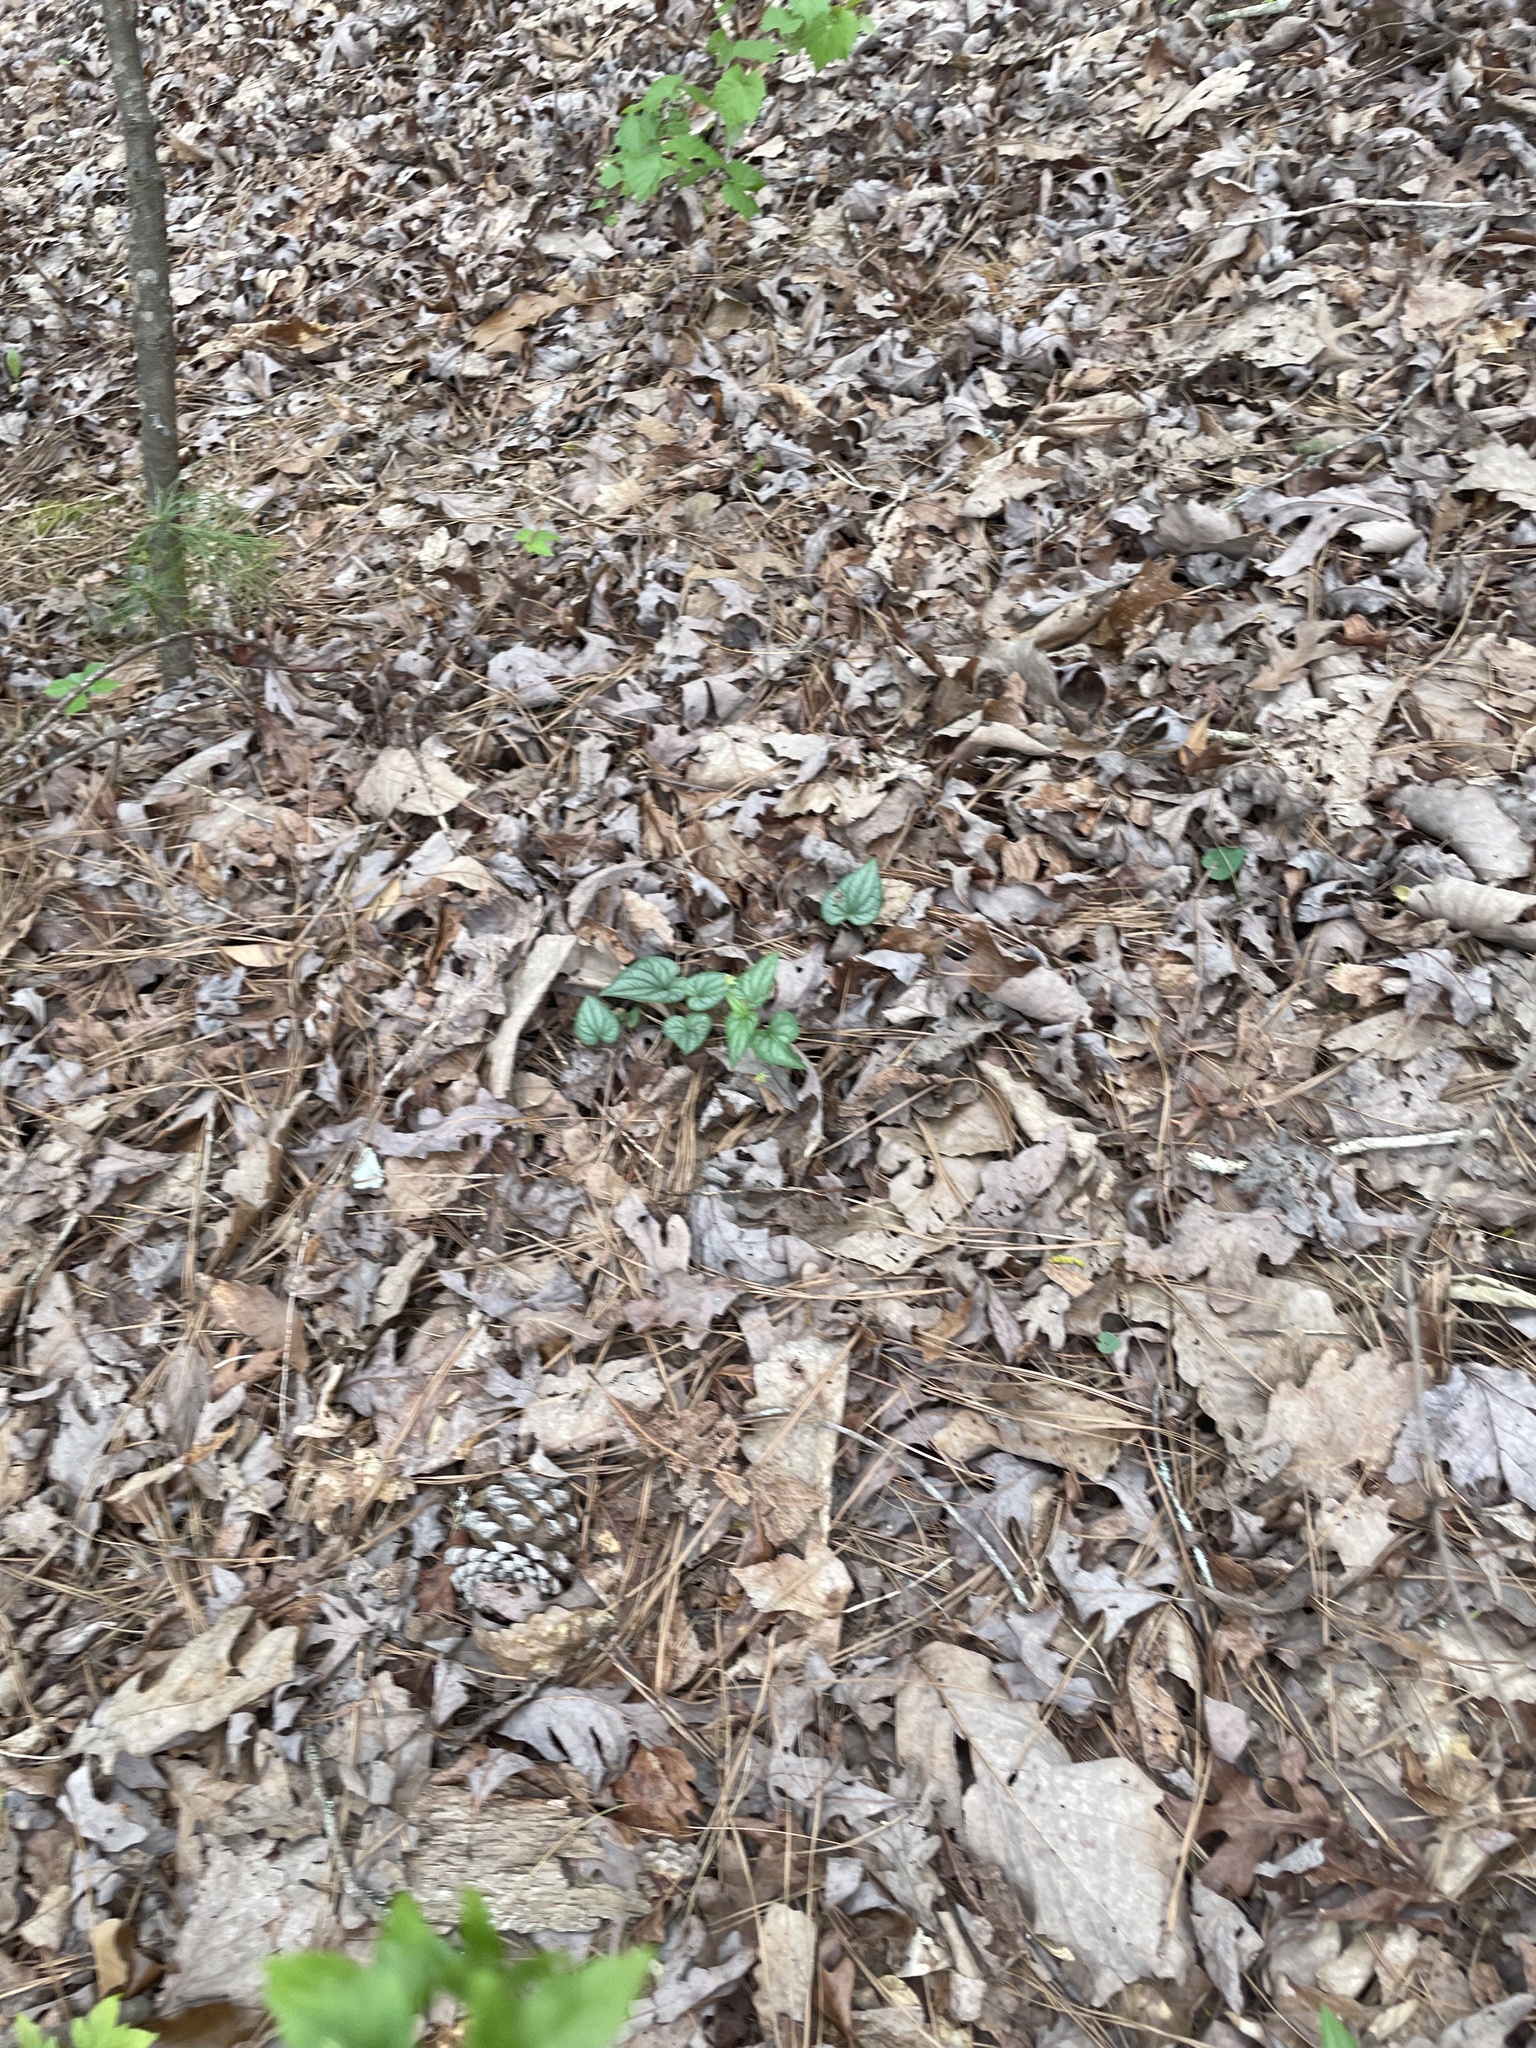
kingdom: Plantae
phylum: Tracheophyta
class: Magnoliopsida
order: Malpighiales
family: Violaceae
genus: Viola
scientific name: Viola hastata
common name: Spear-leaf violet
